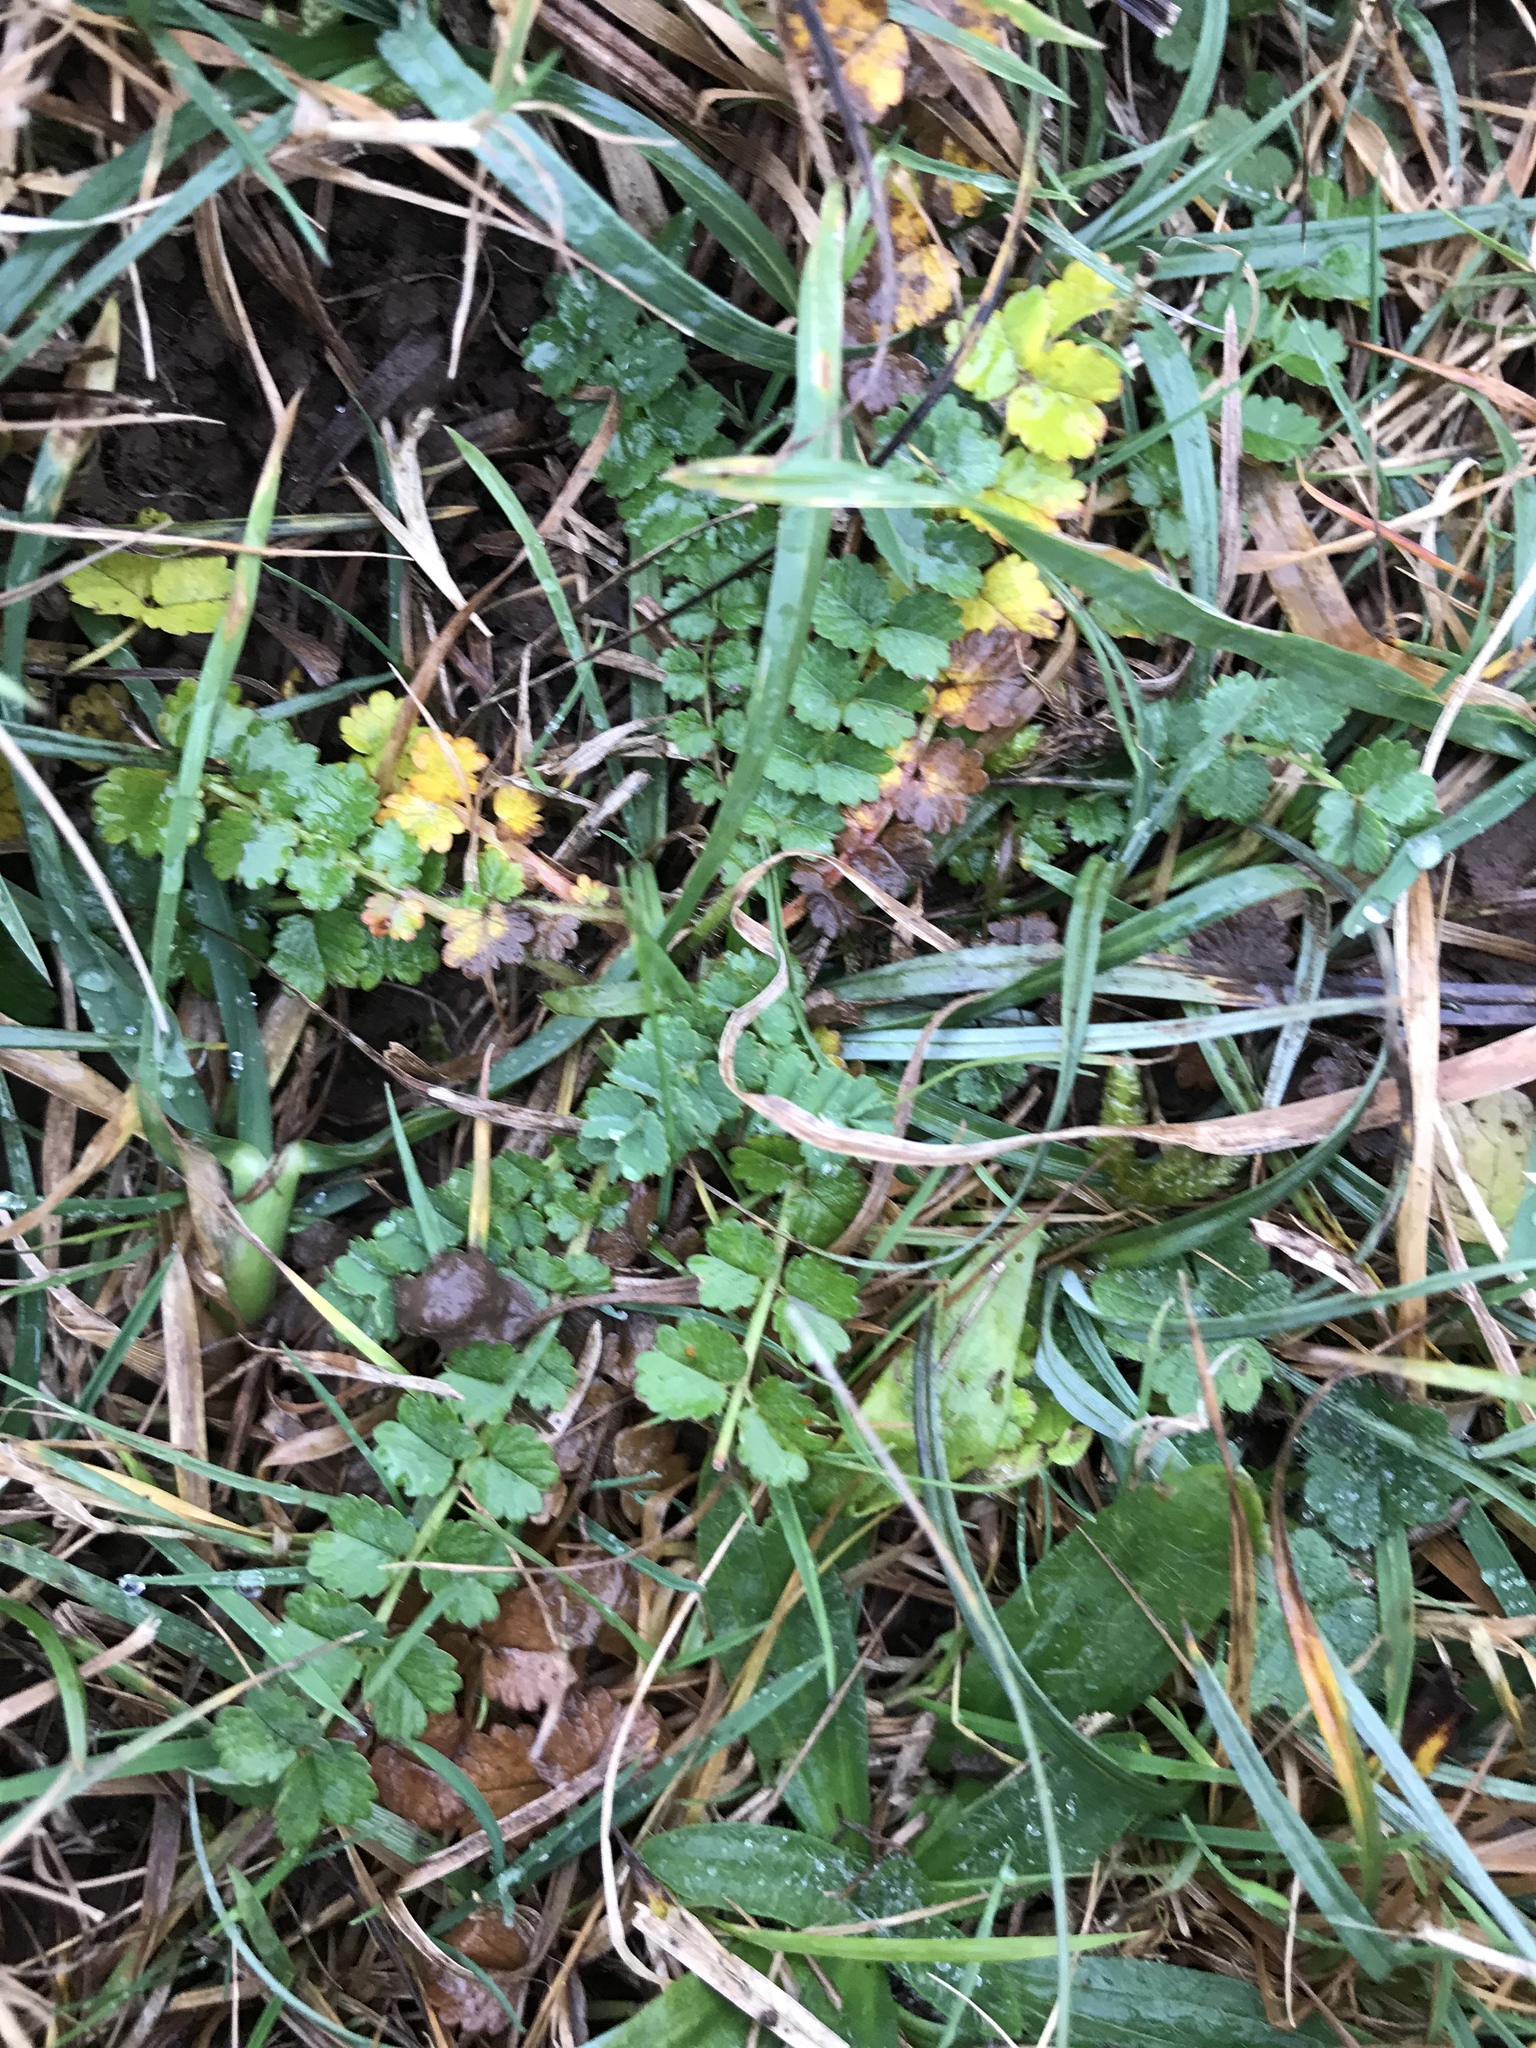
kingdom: Plantae
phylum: Tracheophyta
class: Magnoliopsida
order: Rosales
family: Rosaceae
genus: Poterium
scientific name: Poterium sanguisorba
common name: Salad burnet
